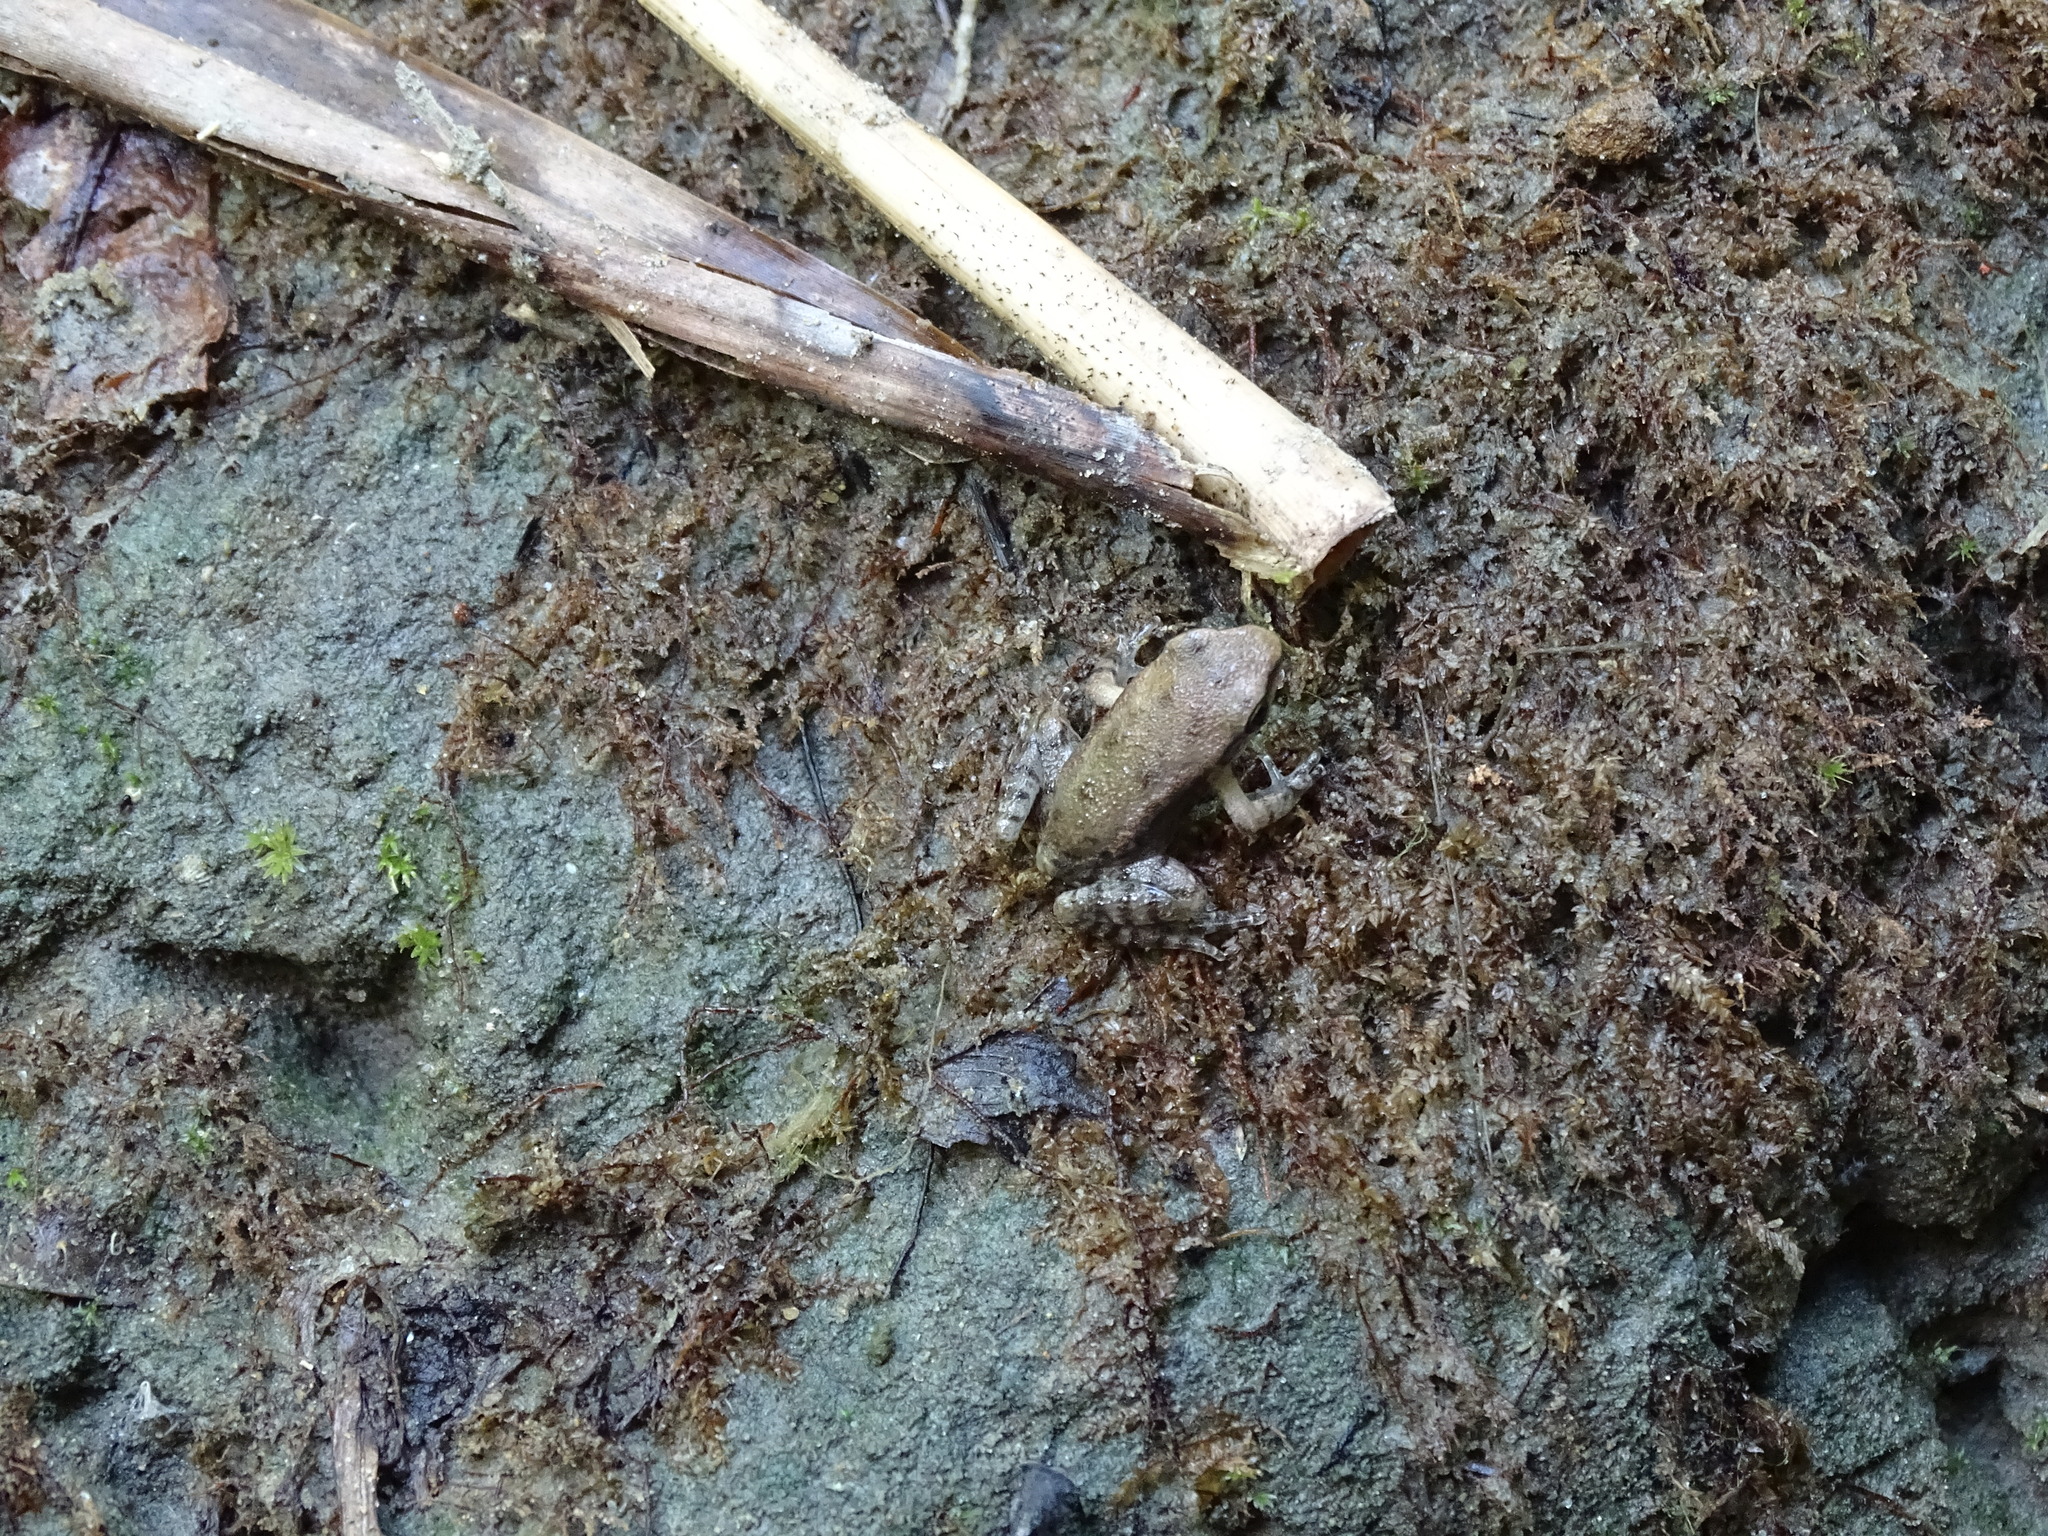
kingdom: Animalia
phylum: Chordata
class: Amphibia
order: Anura
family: Ranidae
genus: Hylarana
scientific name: Hylarana latouchii
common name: Broad-folded frog
